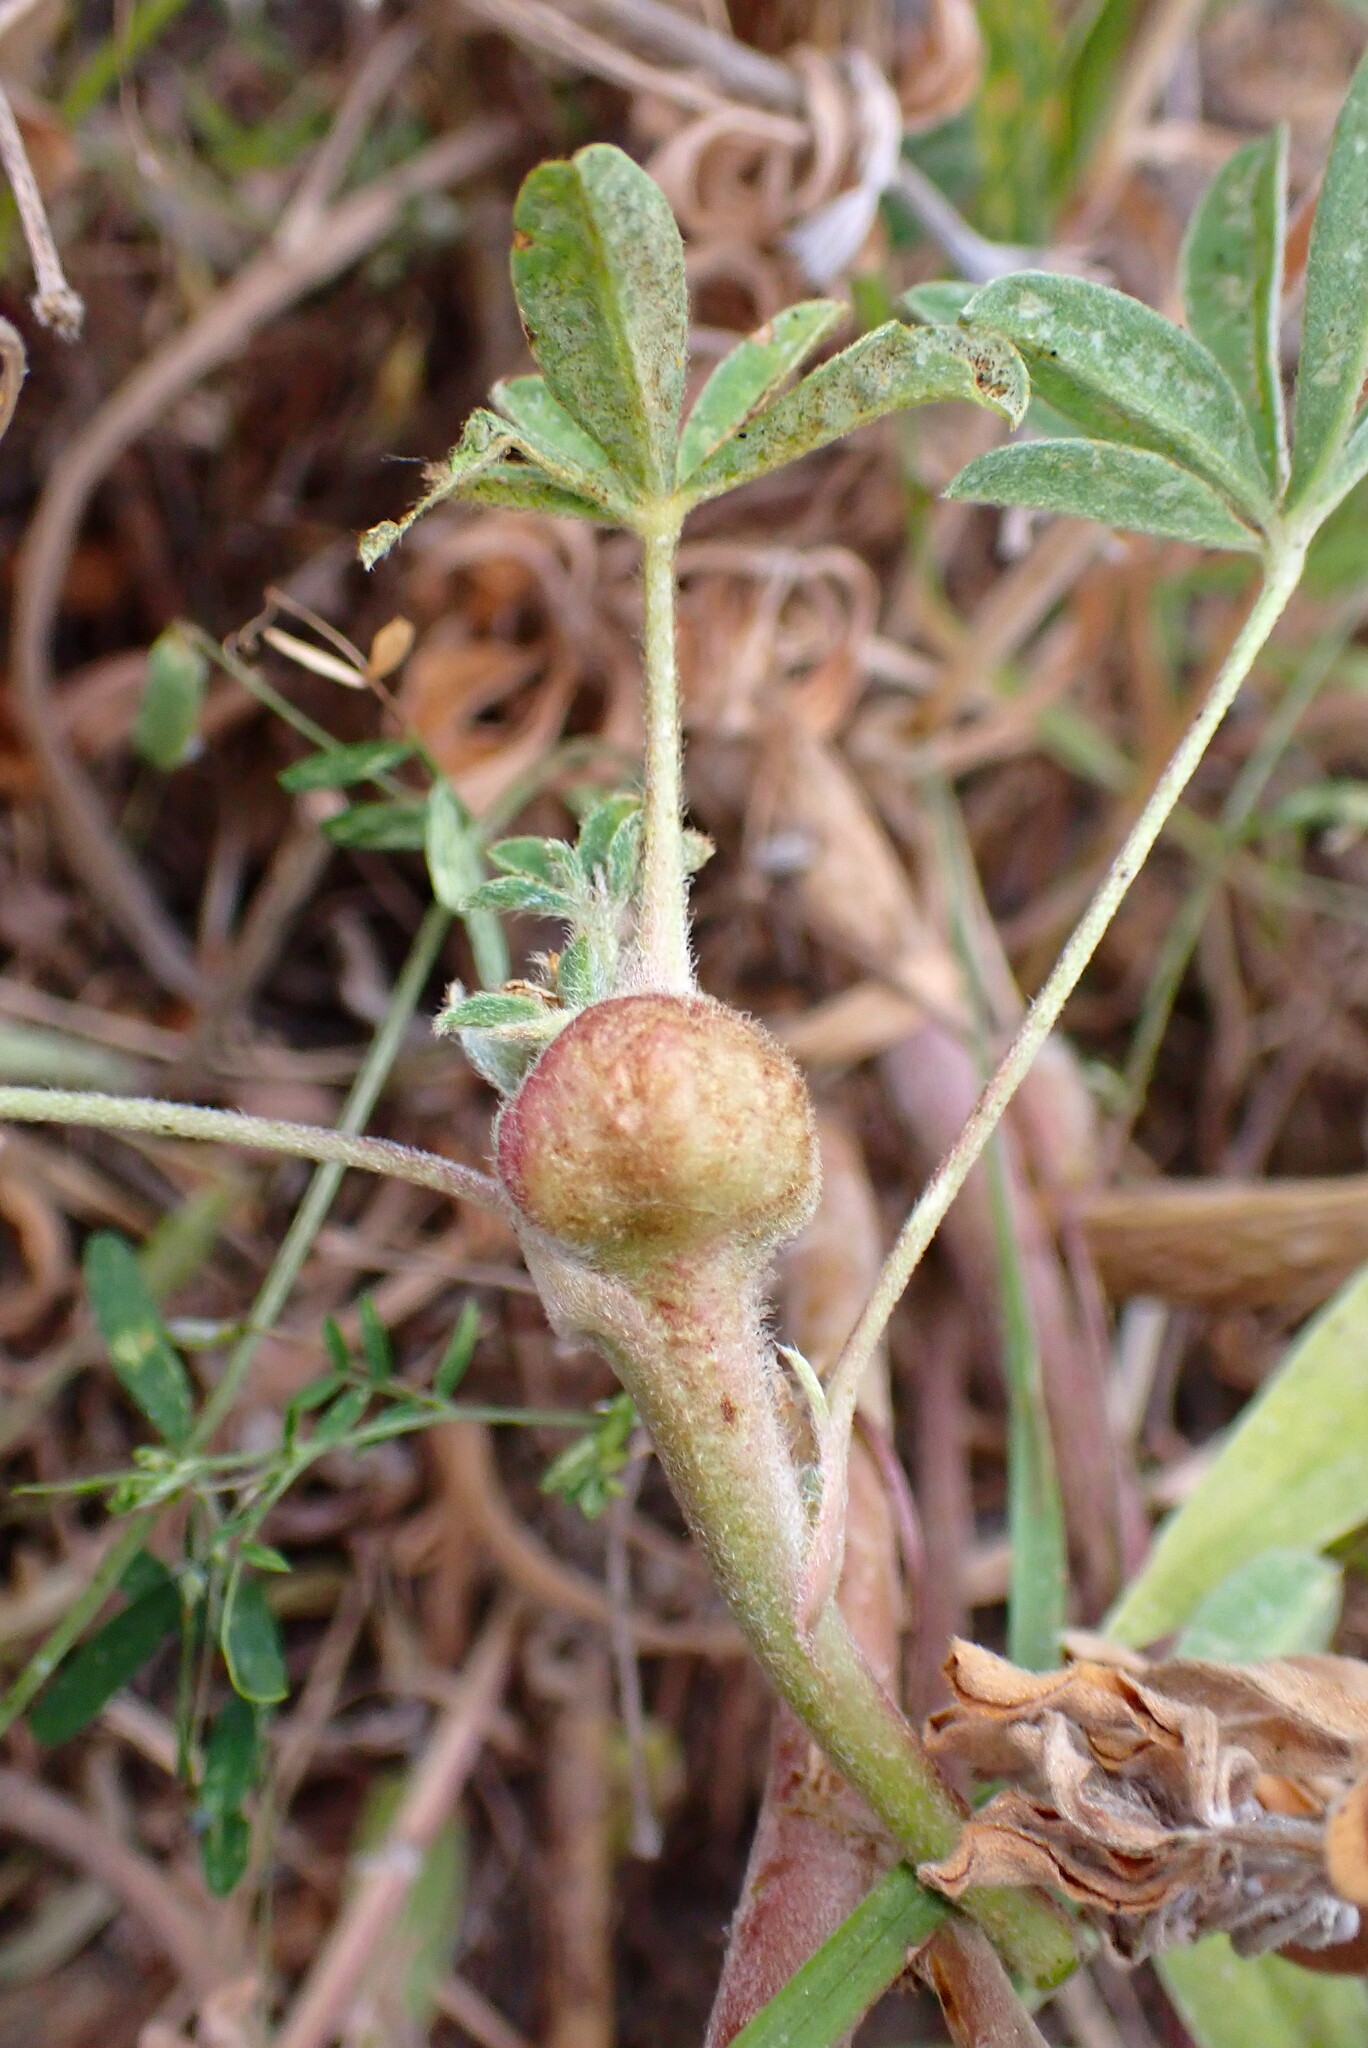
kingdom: Animalia
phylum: Arthropoda
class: Insecta
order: Diptera
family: Cecidomyiidae
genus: Dasineura
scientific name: Dasineura lupini
